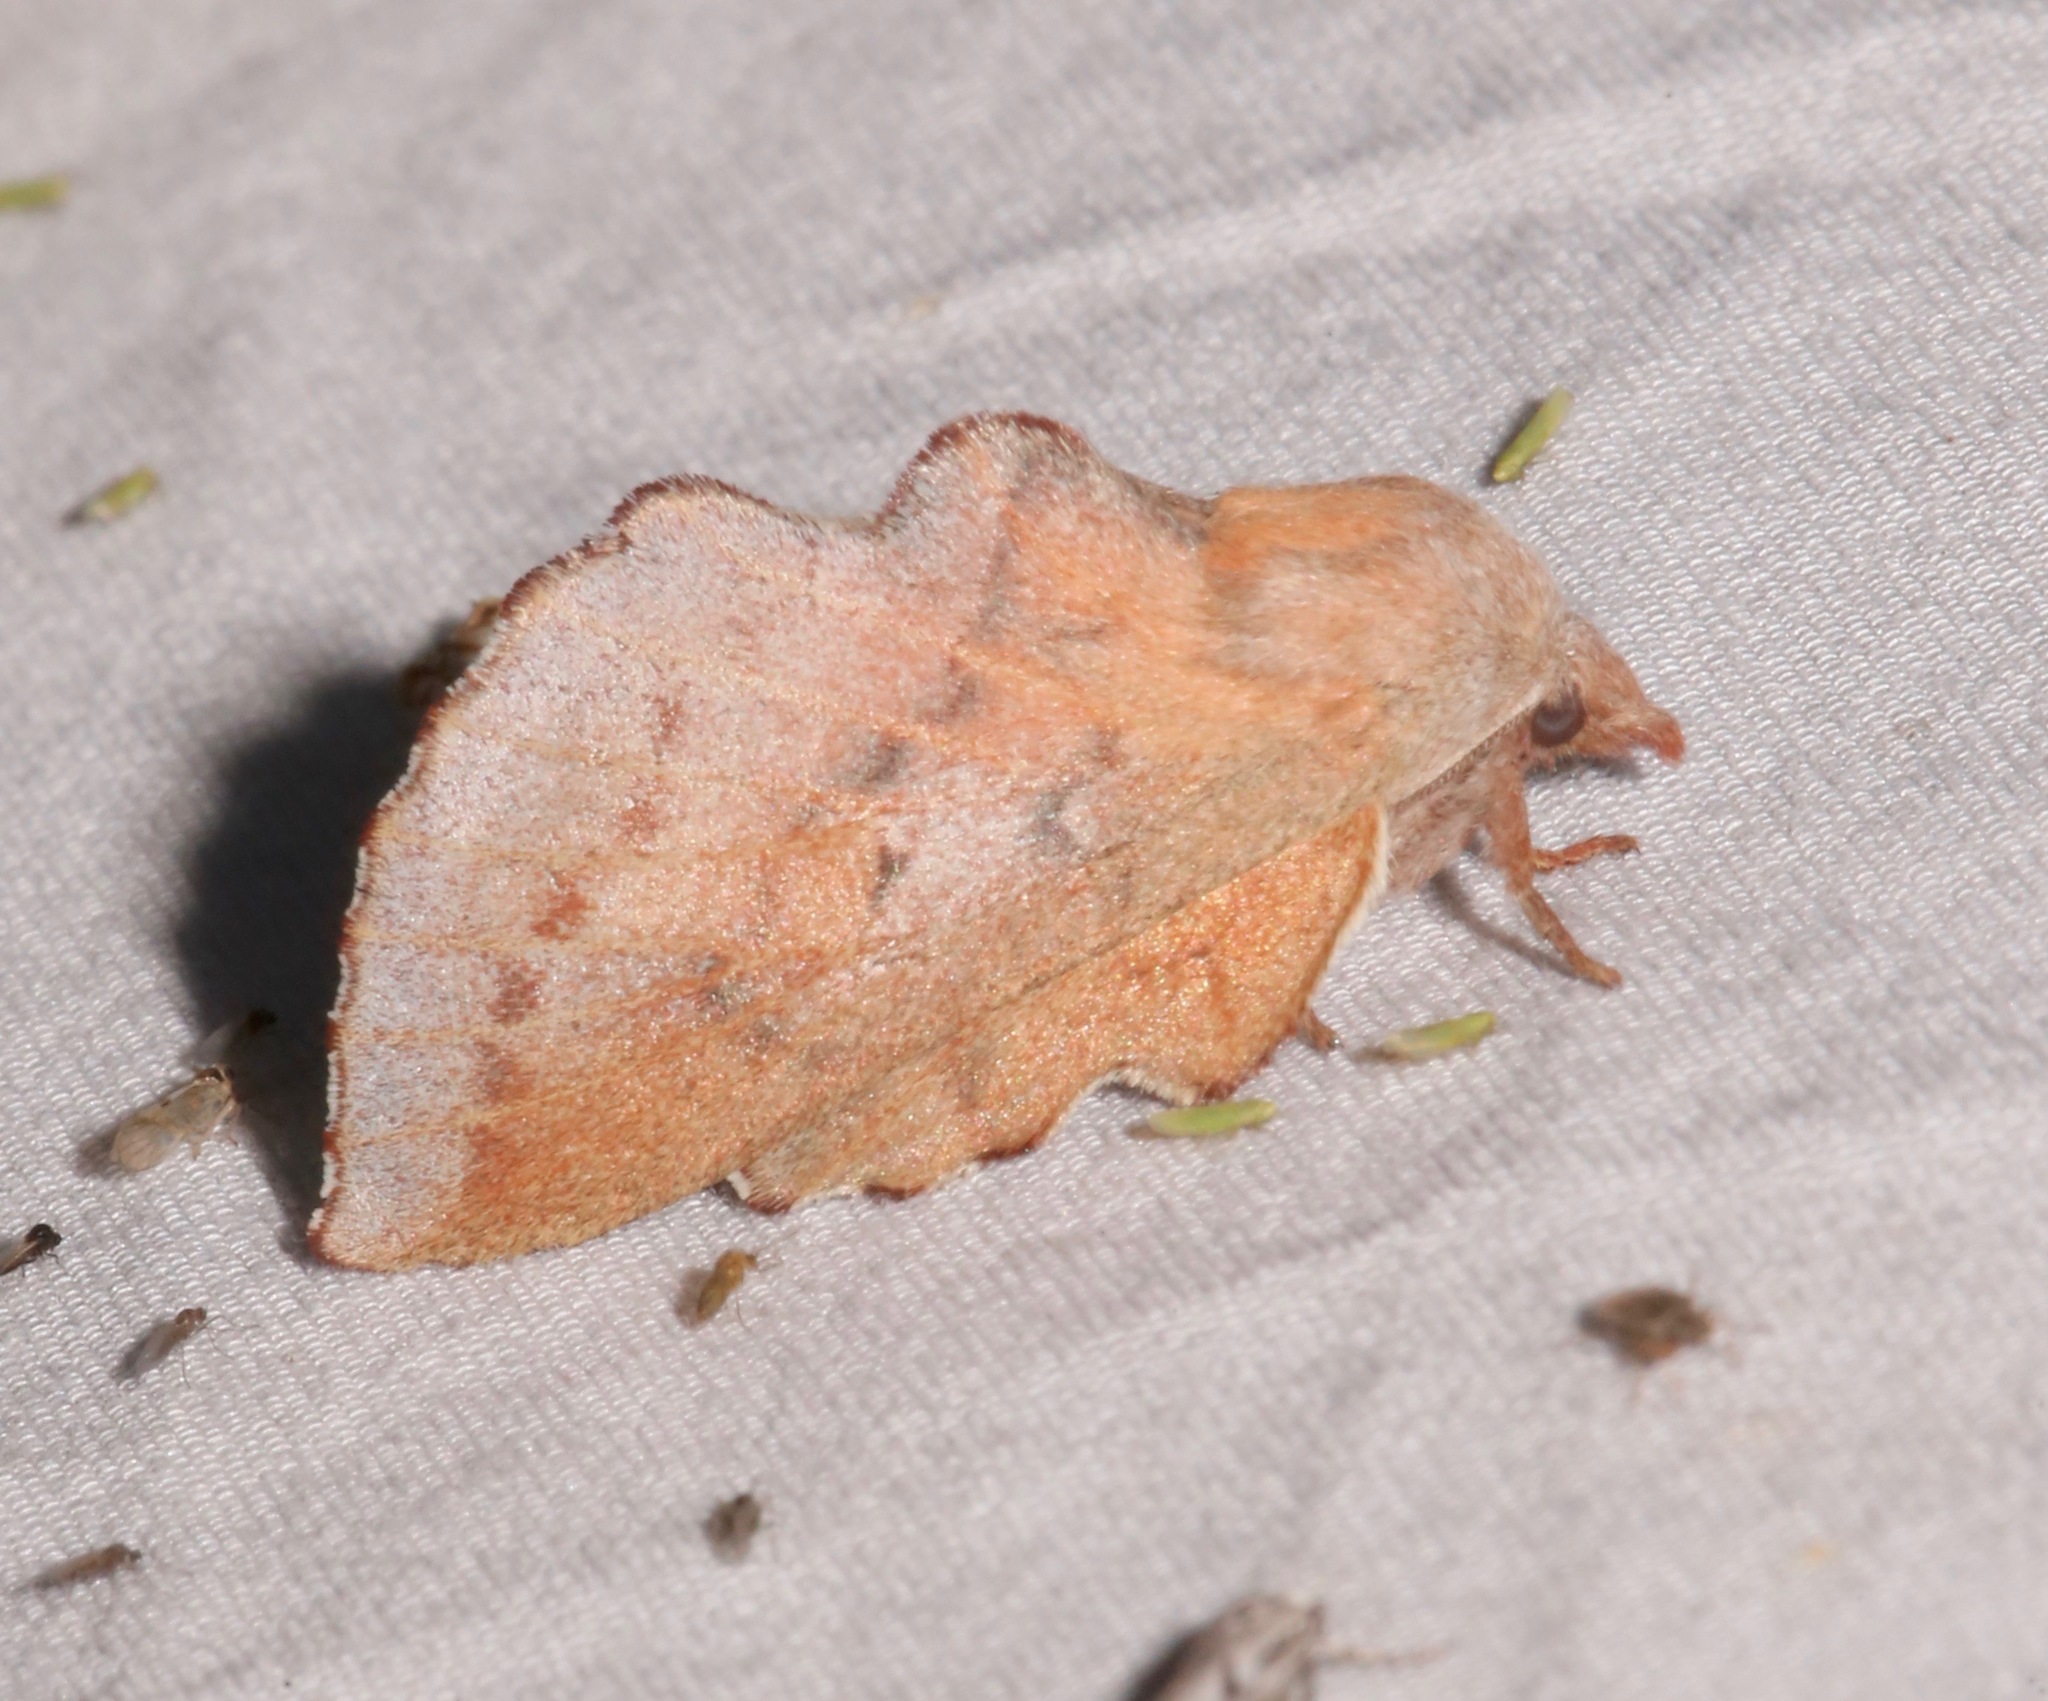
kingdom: Animalia
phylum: Arthropoda
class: Insecta
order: Lepidoptera
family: Lasiocampidae
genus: Phyllodesma
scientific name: Phyllodesma americana
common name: American lappet moth
